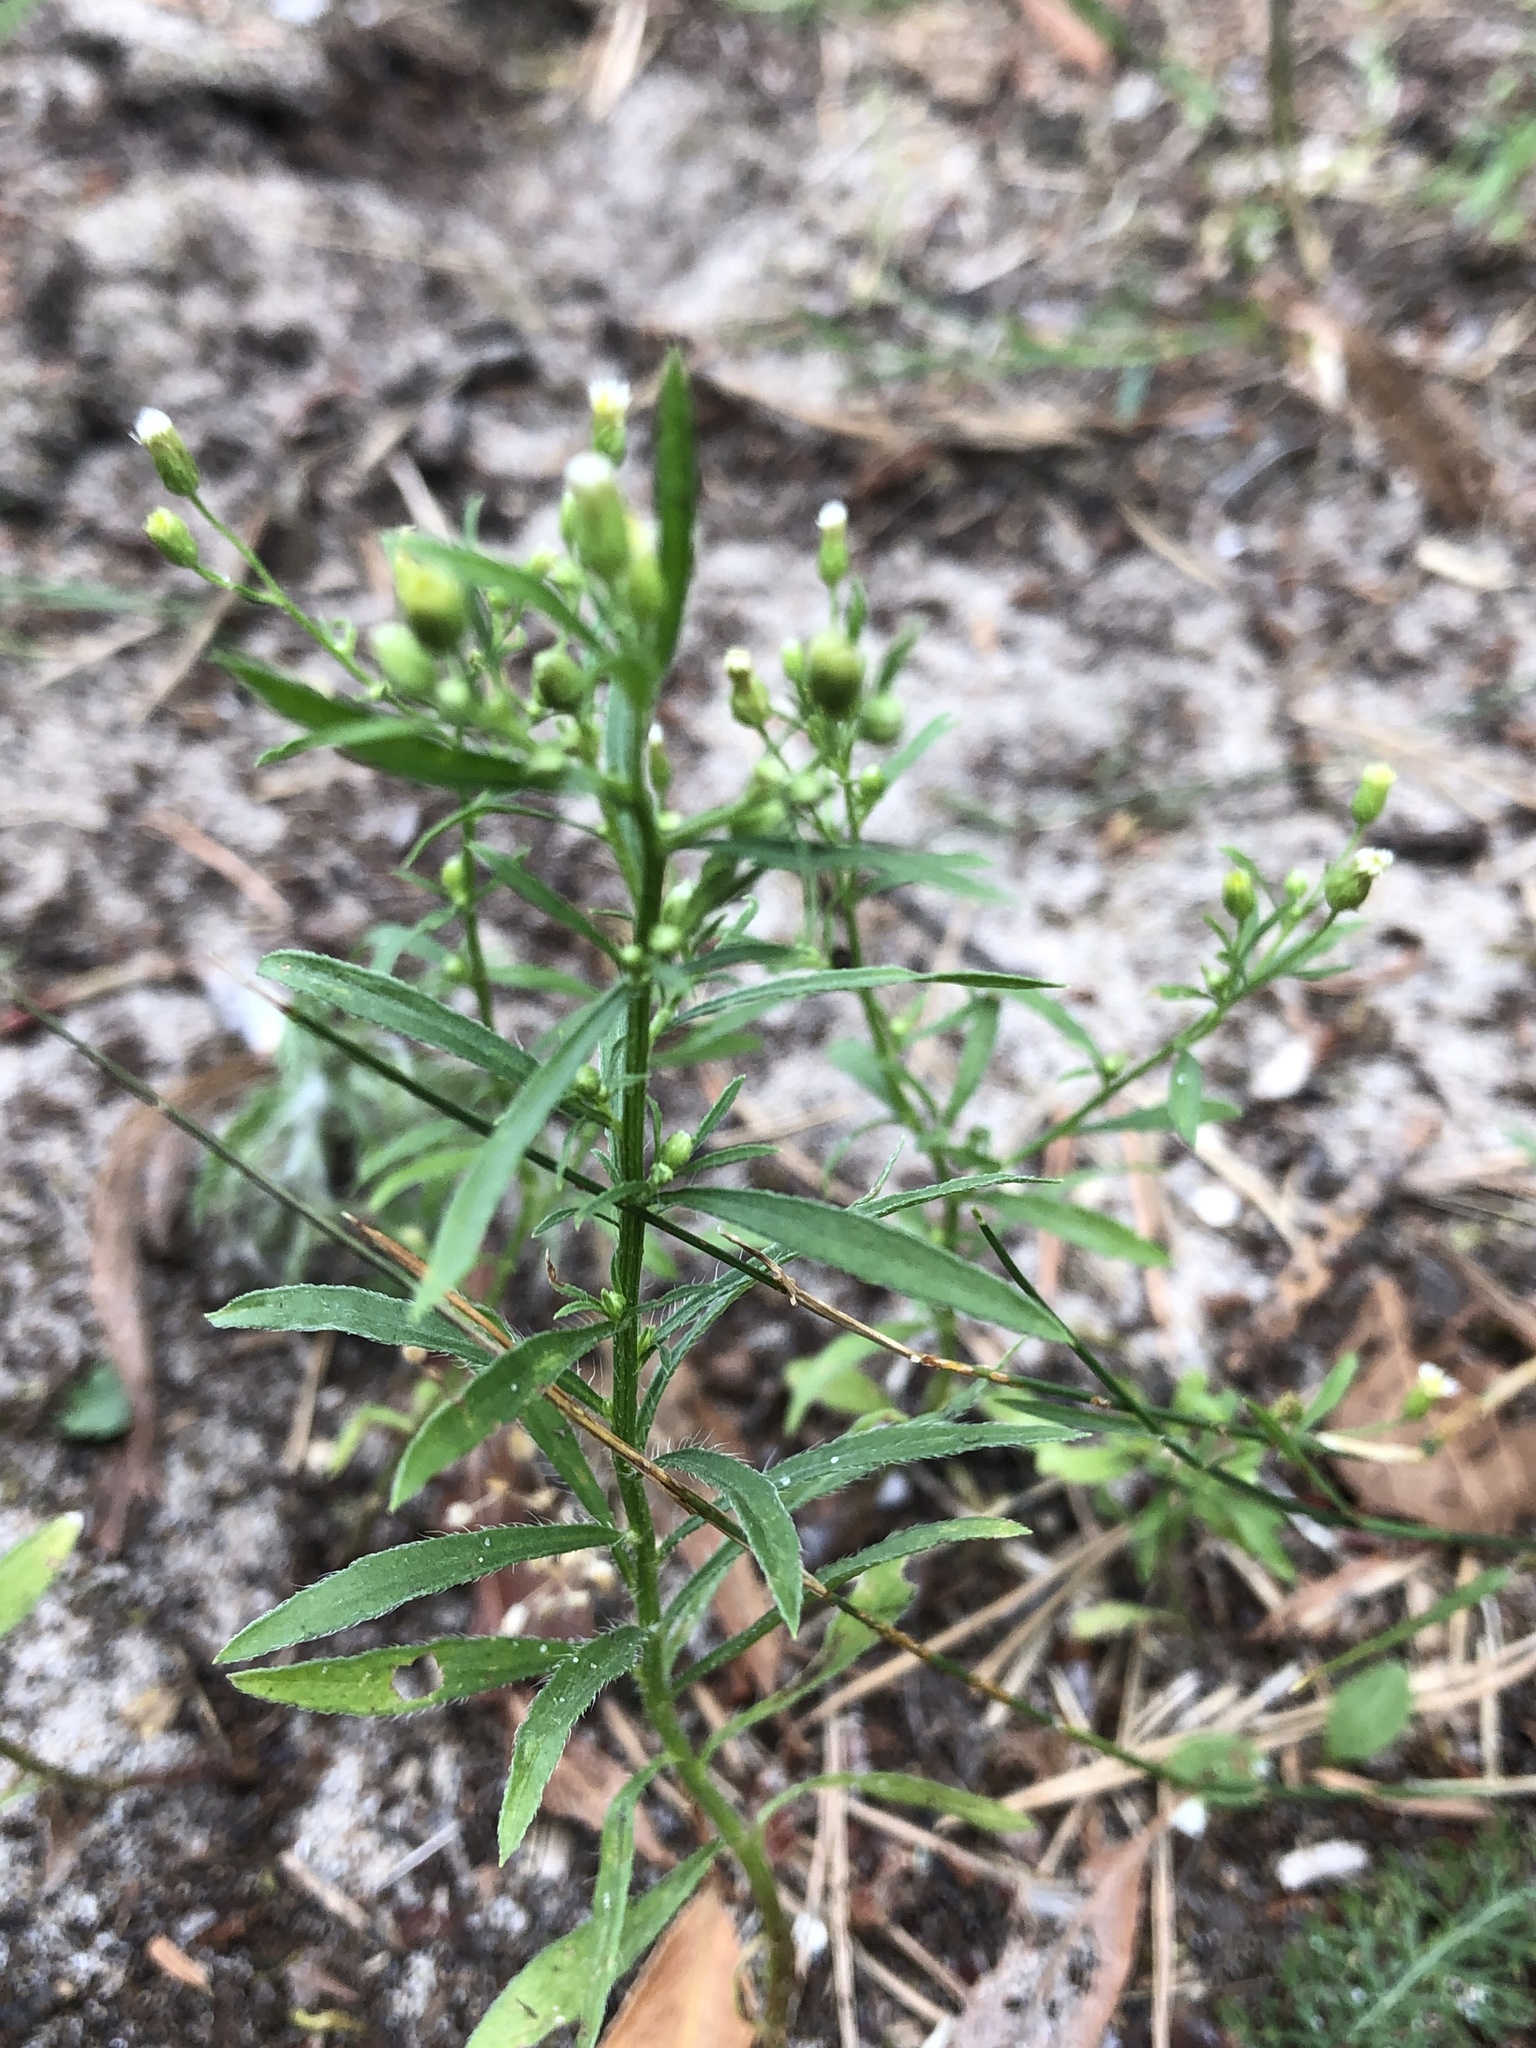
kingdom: Plantae
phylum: Tracheophyta
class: Magnoliopsida
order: Asterales
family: Asteraceae
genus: Erigeron
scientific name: Erigeron canadensis
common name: Canadian fleabane
